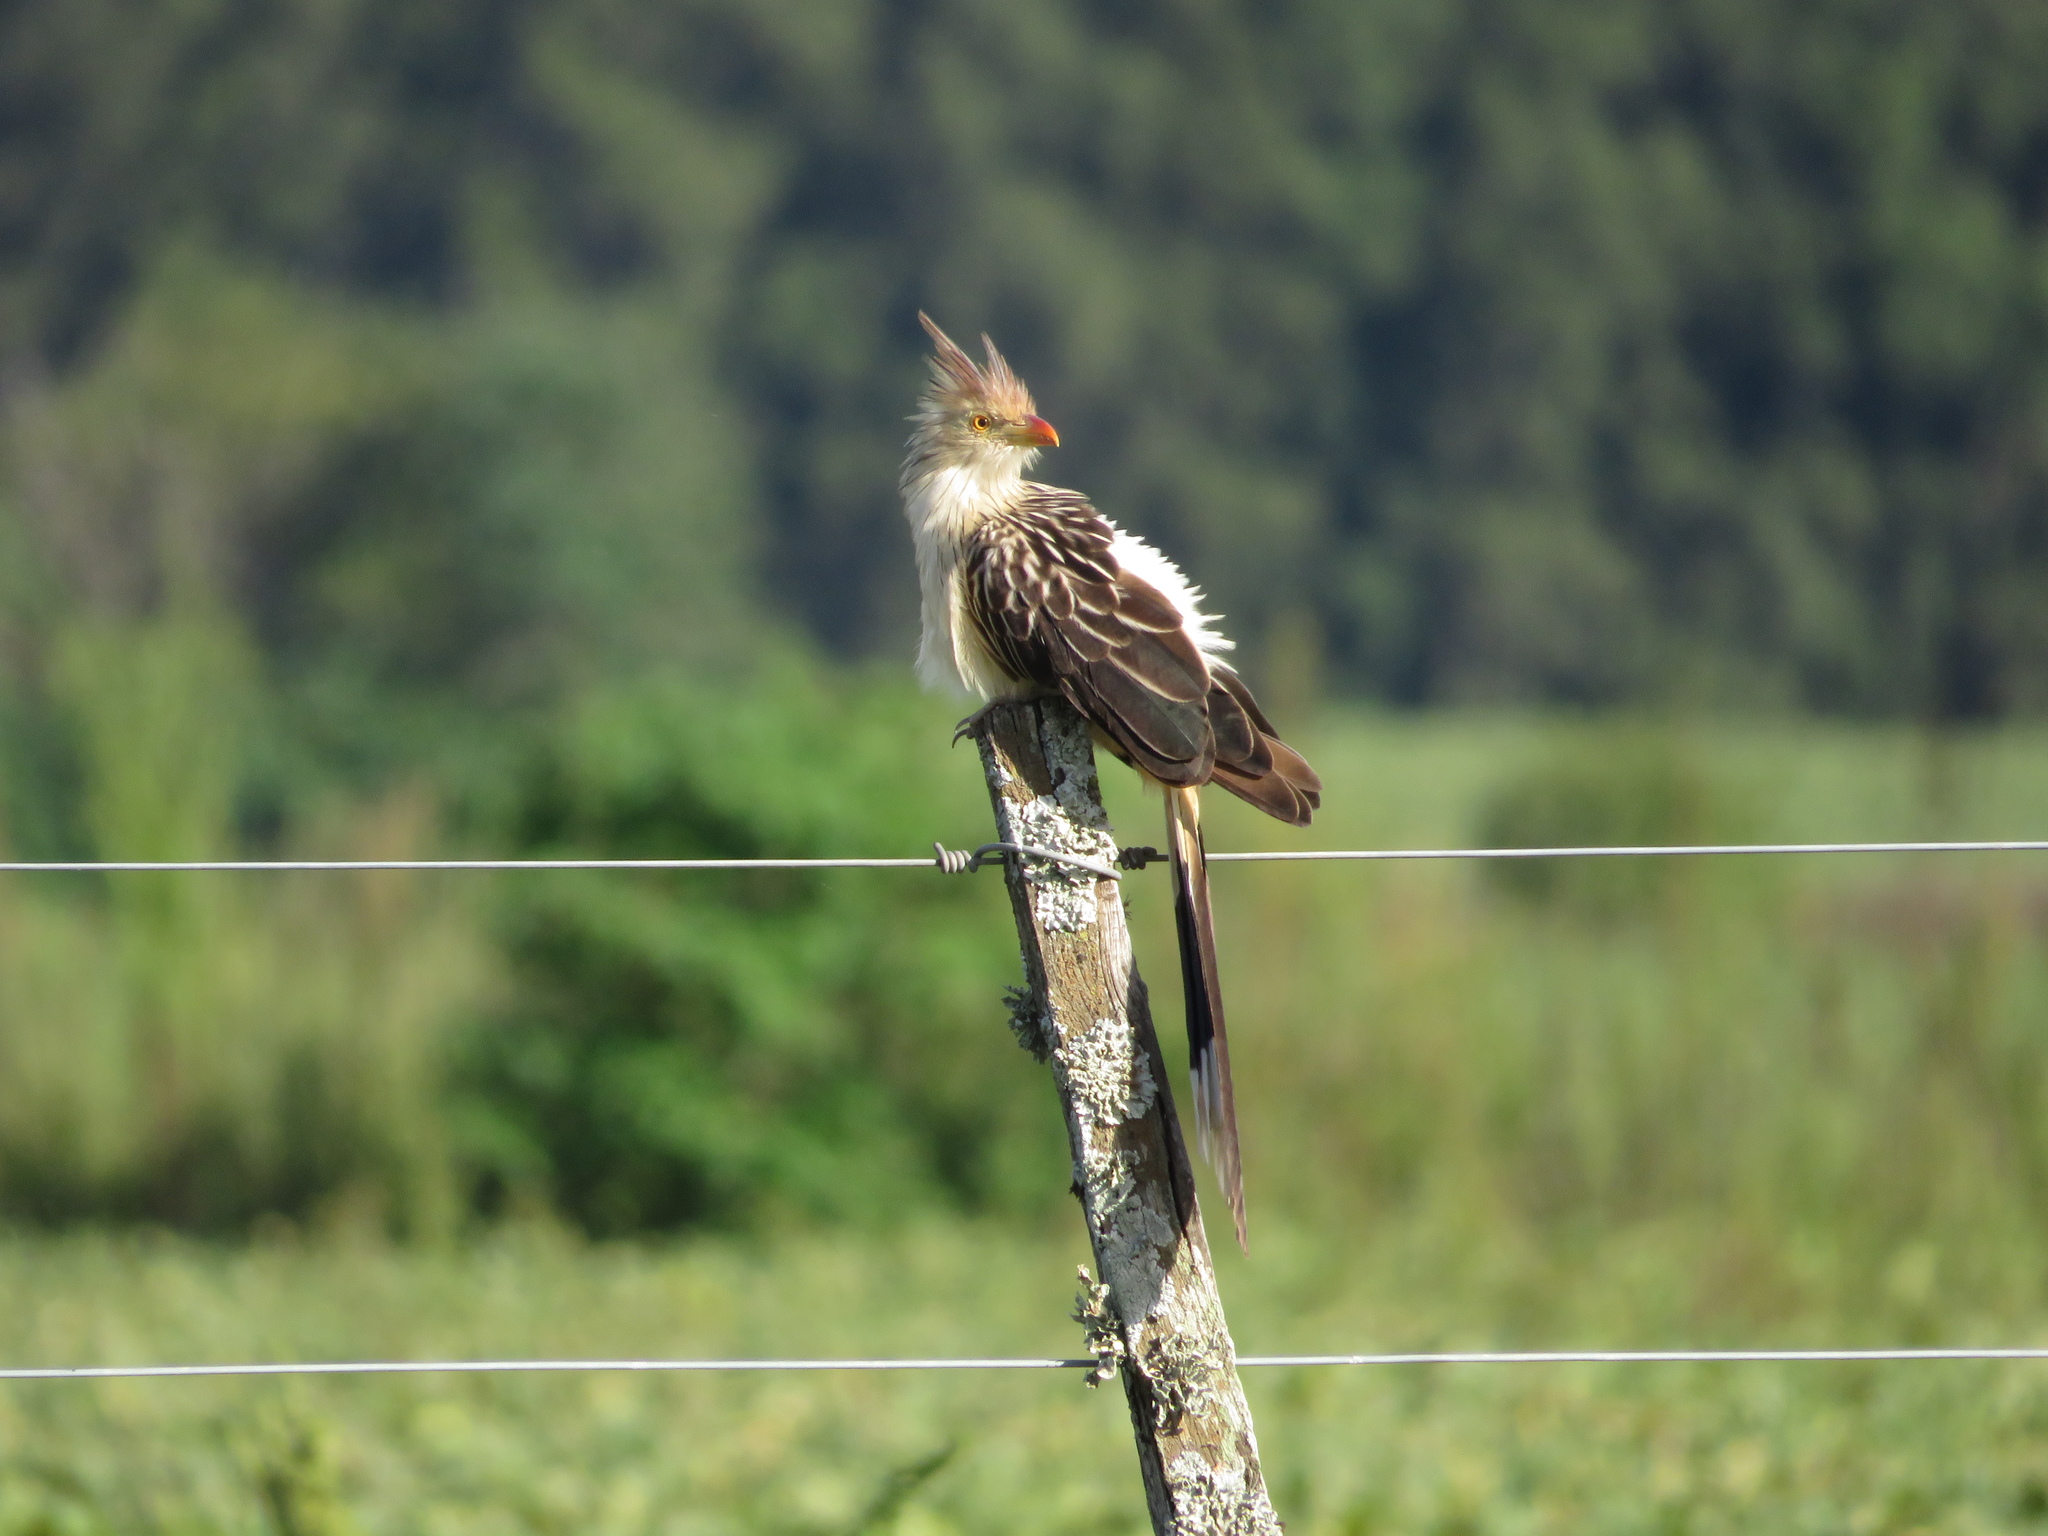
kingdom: Animalia
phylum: Chordata
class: Aves
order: Cuculiformes
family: Cuculidae
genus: Guira
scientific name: Guira guira
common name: Guira cuckoo
